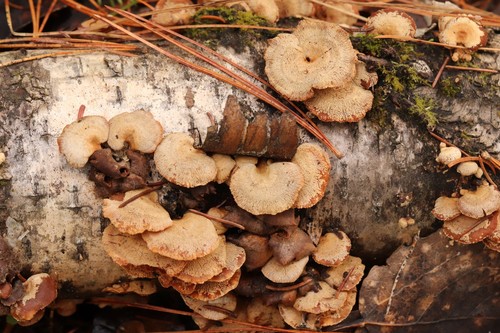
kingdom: Fungi
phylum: Basidiomycota
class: Agaricomycetes
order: Agaricales
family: Mycenaceae
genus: Panellus
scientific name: Panellus stipticus
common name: Bitter oysterling
